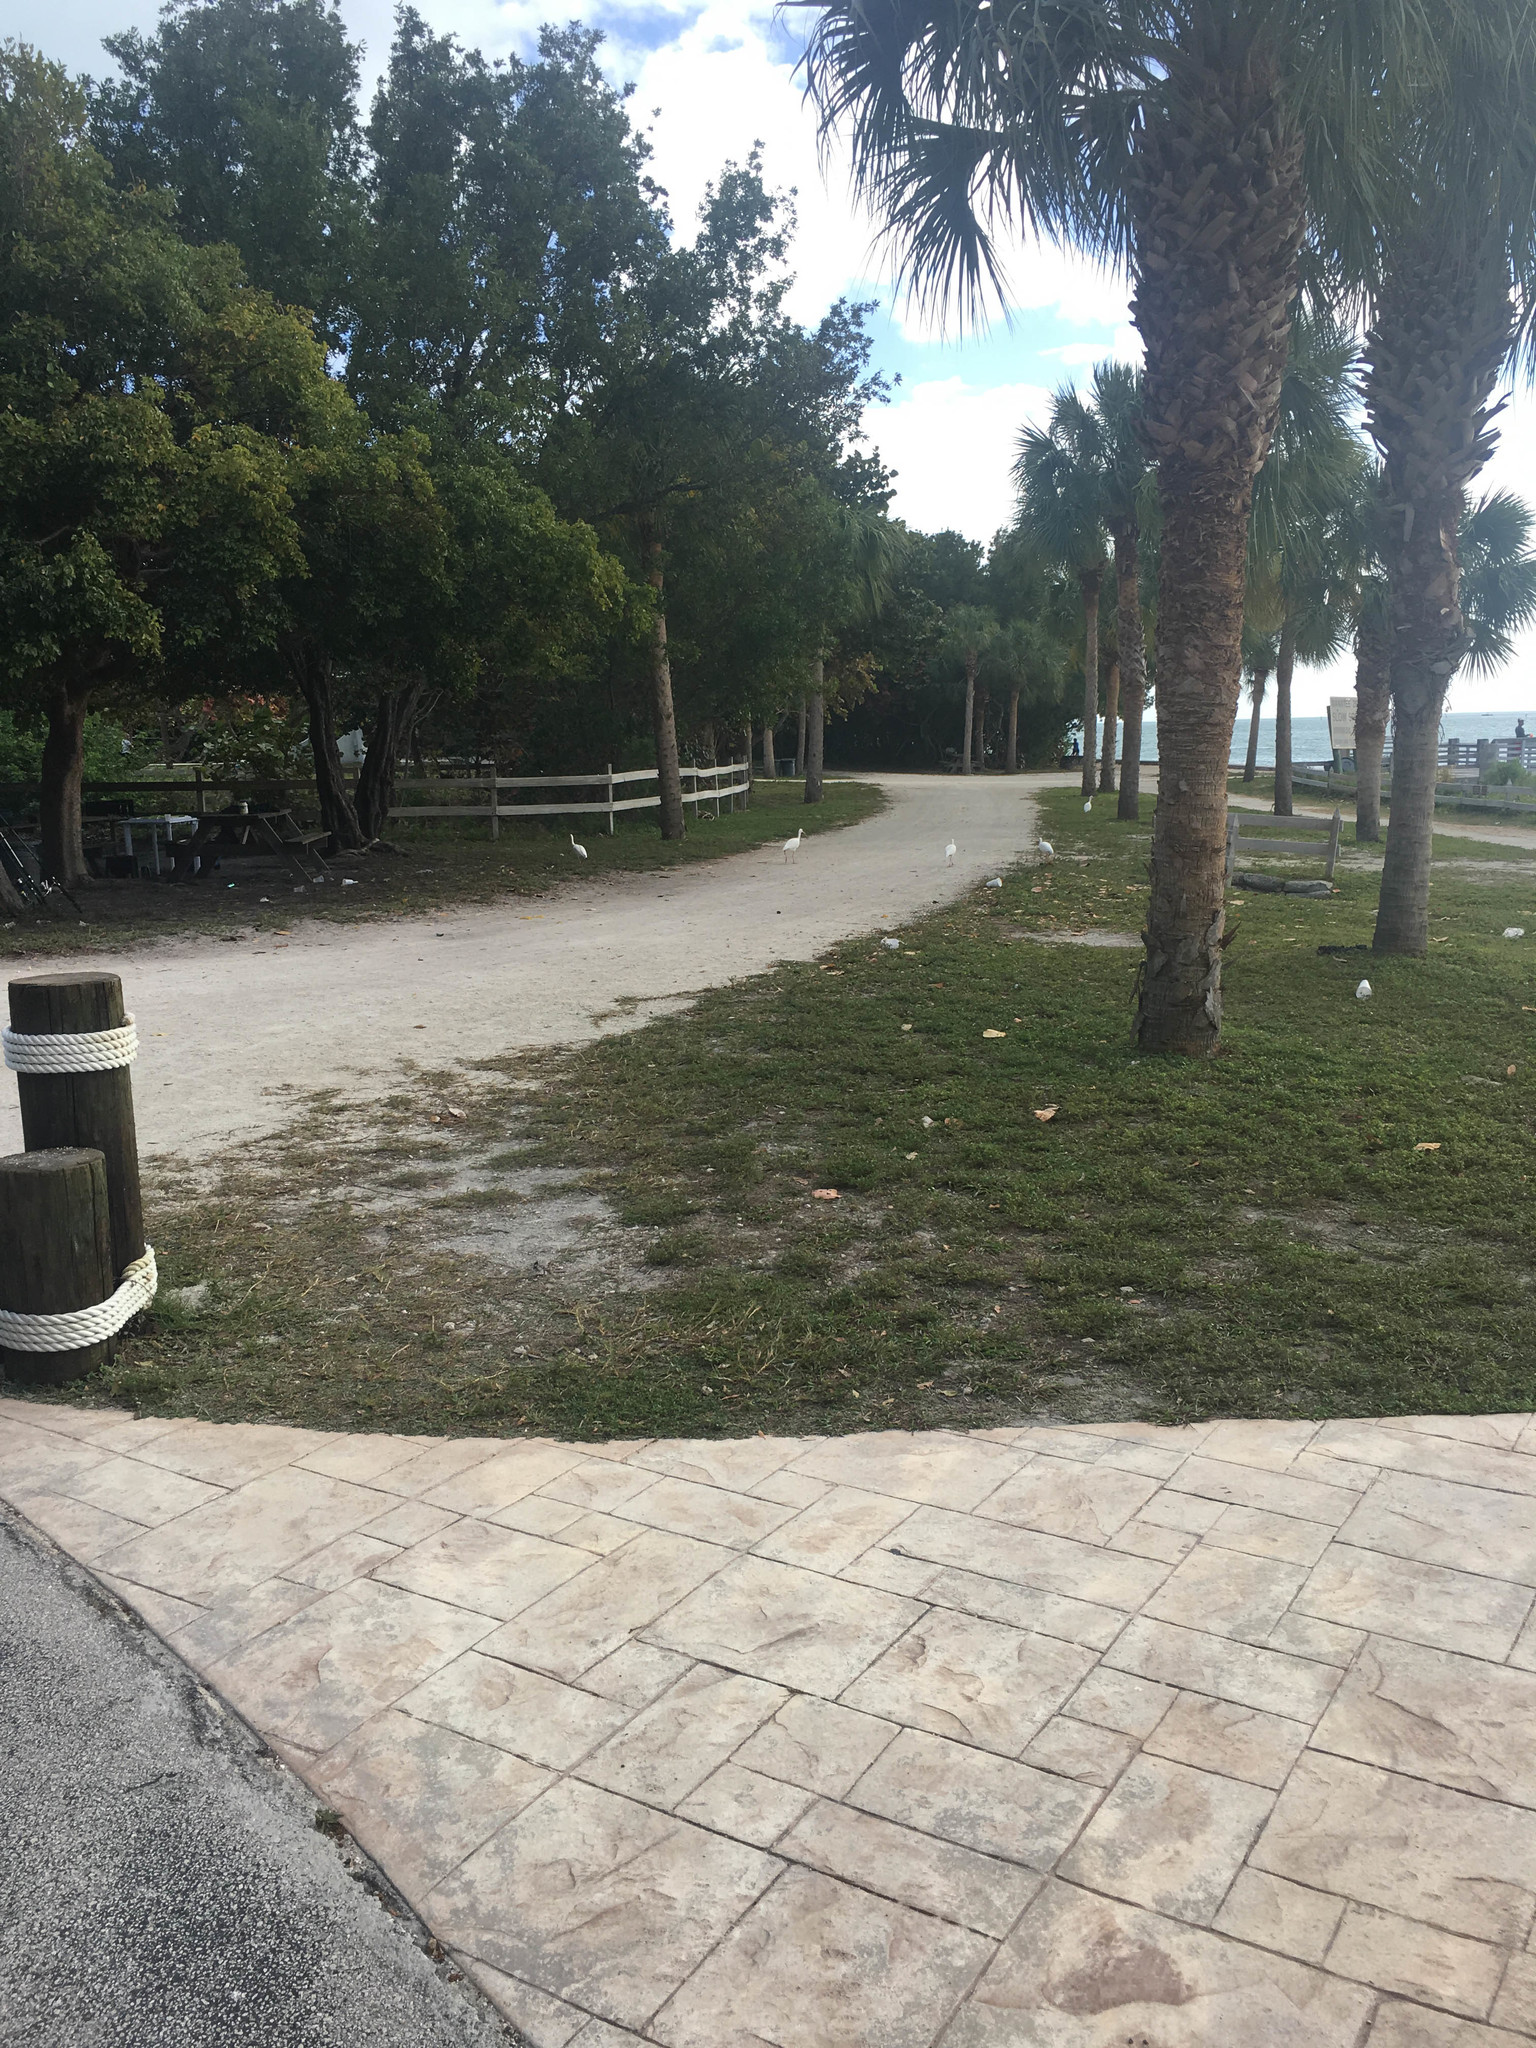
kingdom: Animalia
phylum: Chordata
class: Aves
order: Pelecaniformes
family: Threskiornithidae
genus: Eudocimus
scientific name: Eudocimus albus
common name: White ibis
